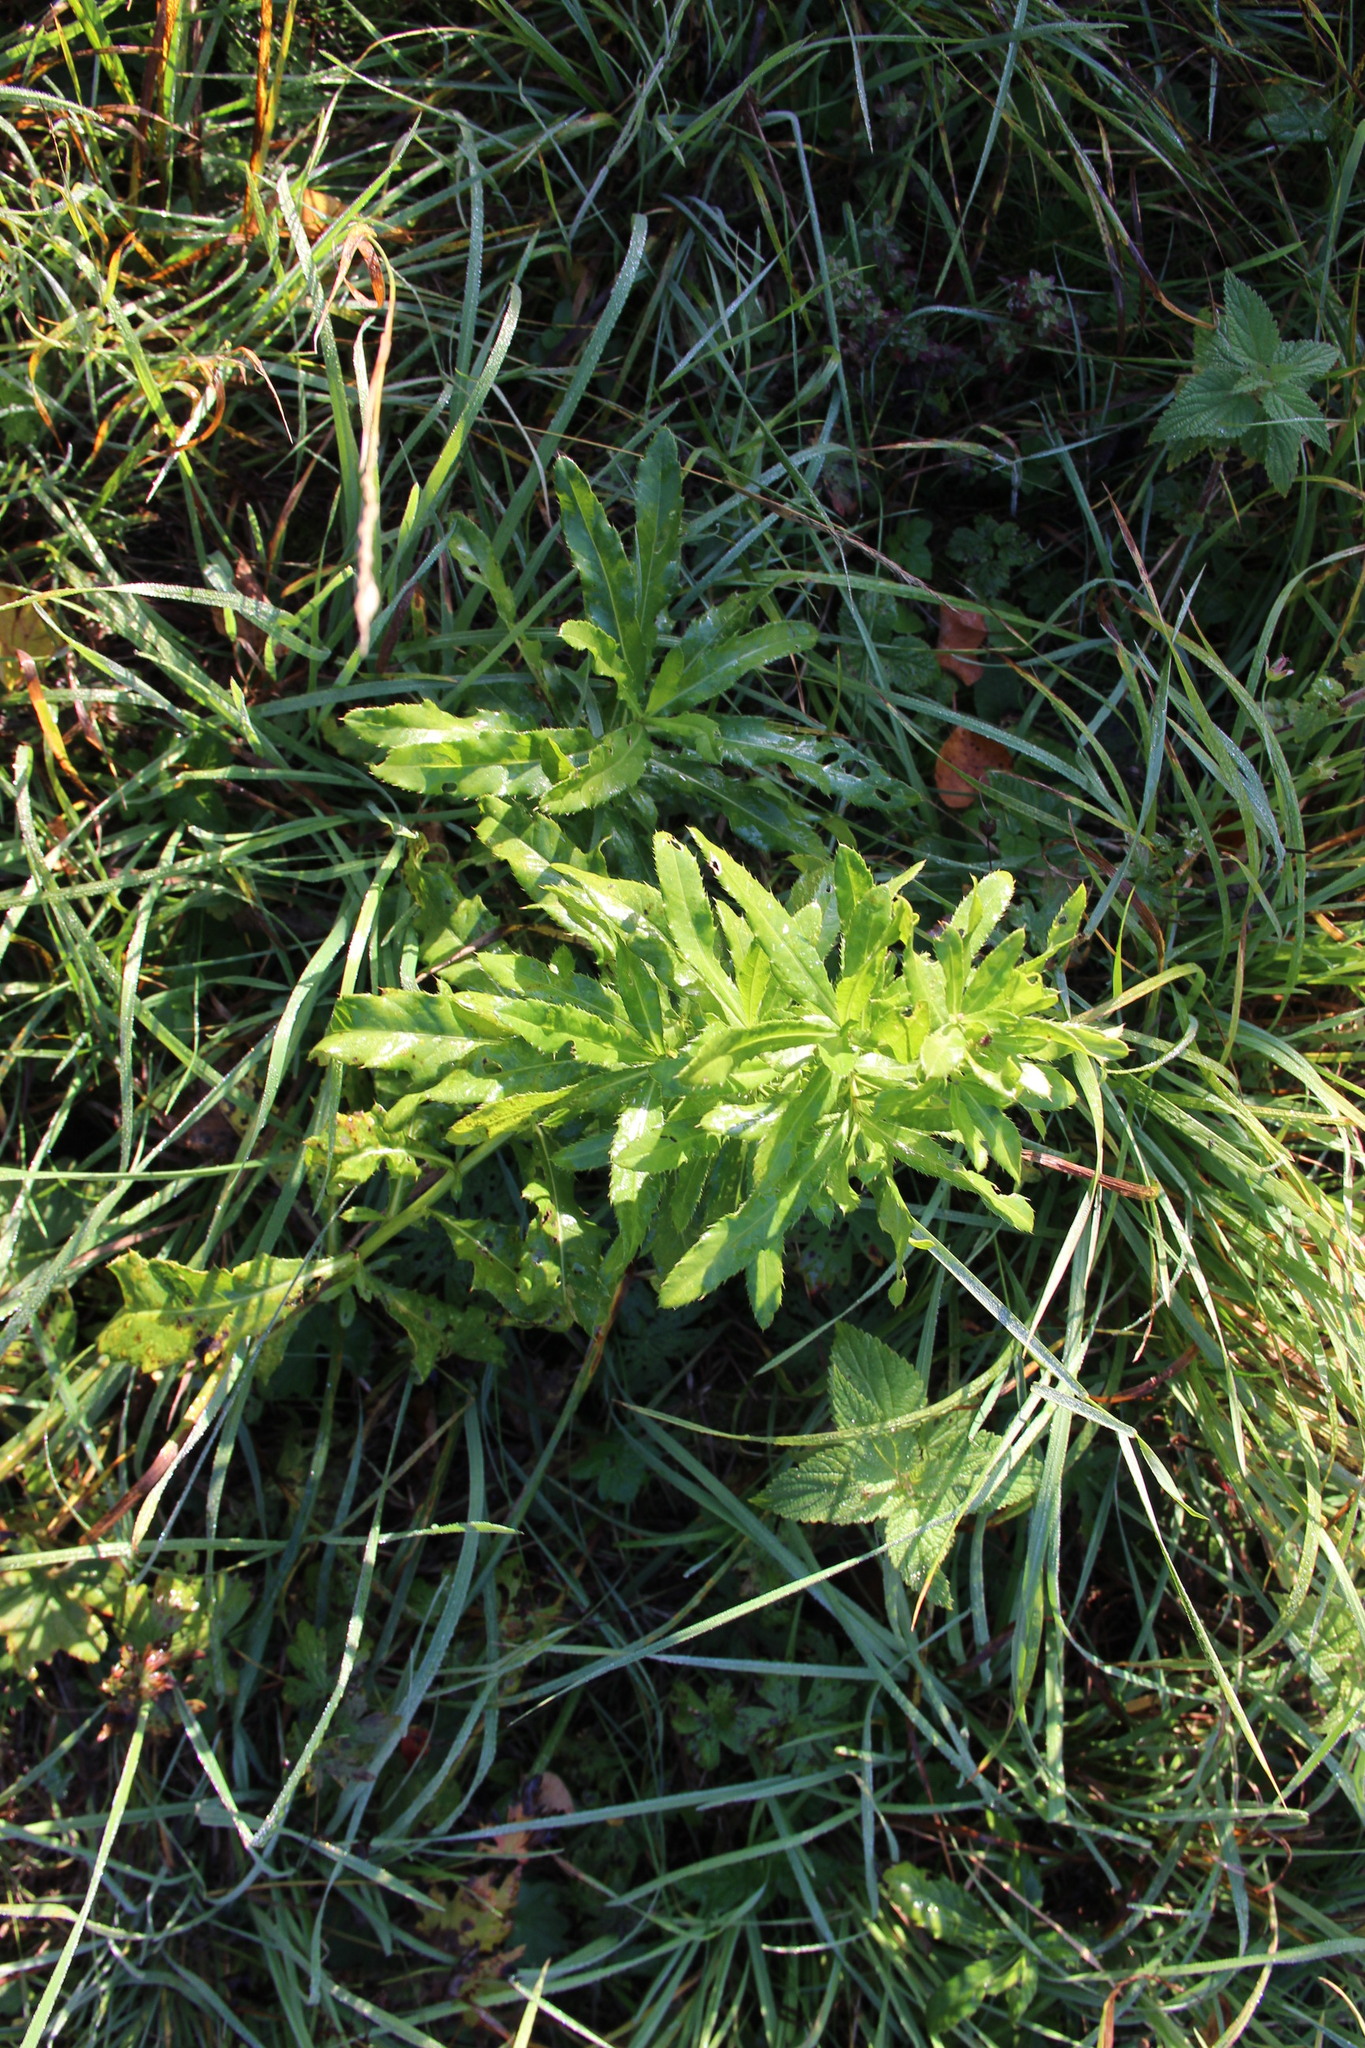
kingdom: Plantae
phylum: Tracheophyta
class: Magnoliopsida
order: Asterales
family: Asteraceae
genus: Cirsium
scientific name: Cirsium arvense
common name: Creeping thistle
